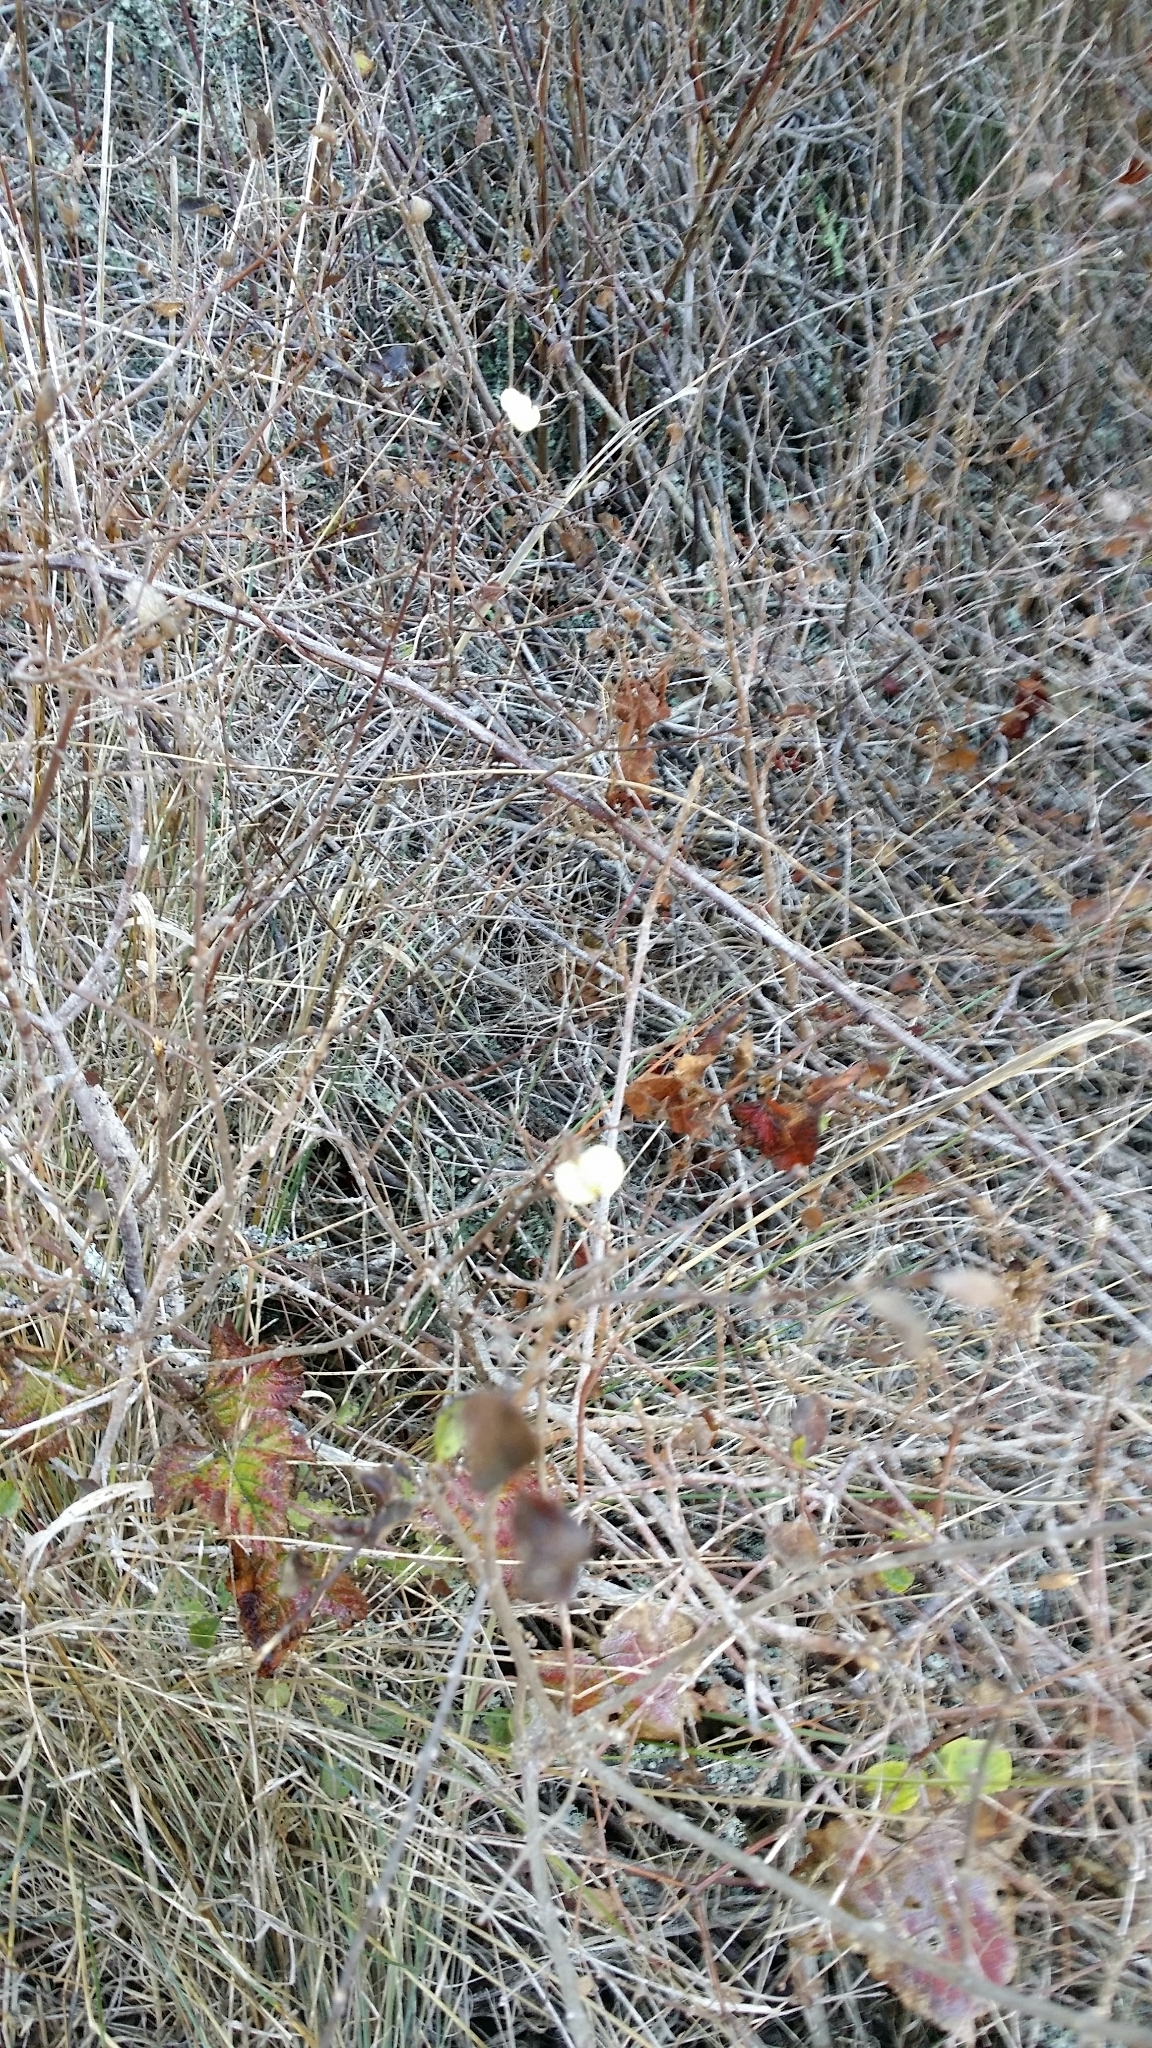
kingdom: Plantae
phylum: Tracheophyta
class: Magnoliopsida
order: Dipsacales
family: Caprifoliaceae
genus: Symphoricarpos
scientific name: Symphoricarpos albus
